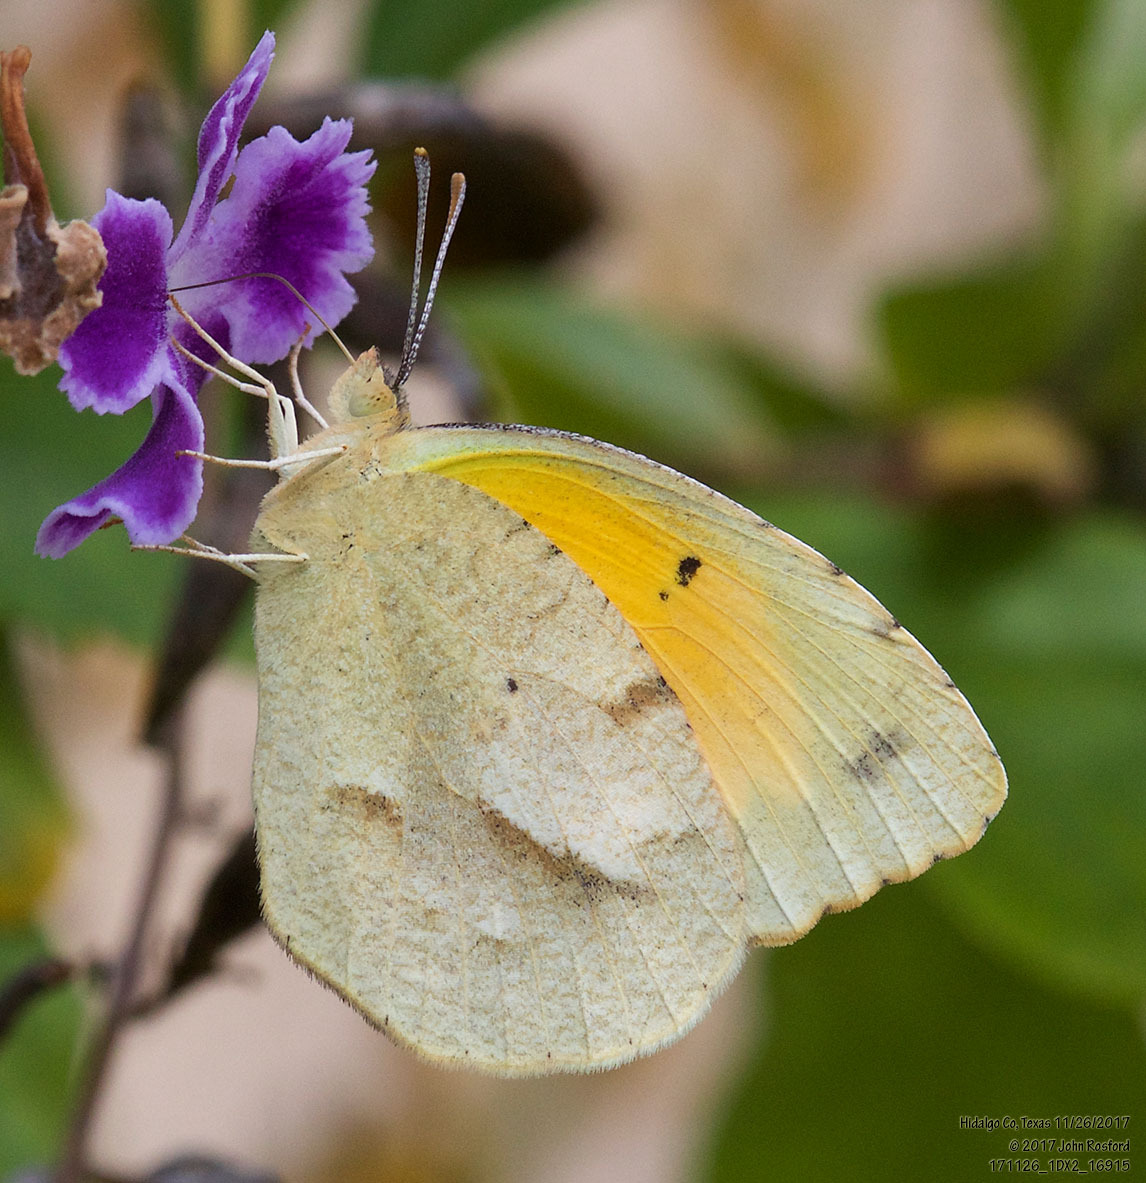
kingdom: Animalia
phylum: Arthropoda
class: Insecta
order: Lepidoptera
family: Pieridae
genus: Abaeis
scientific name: Abaeis nicippe
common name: Sleepy orange
